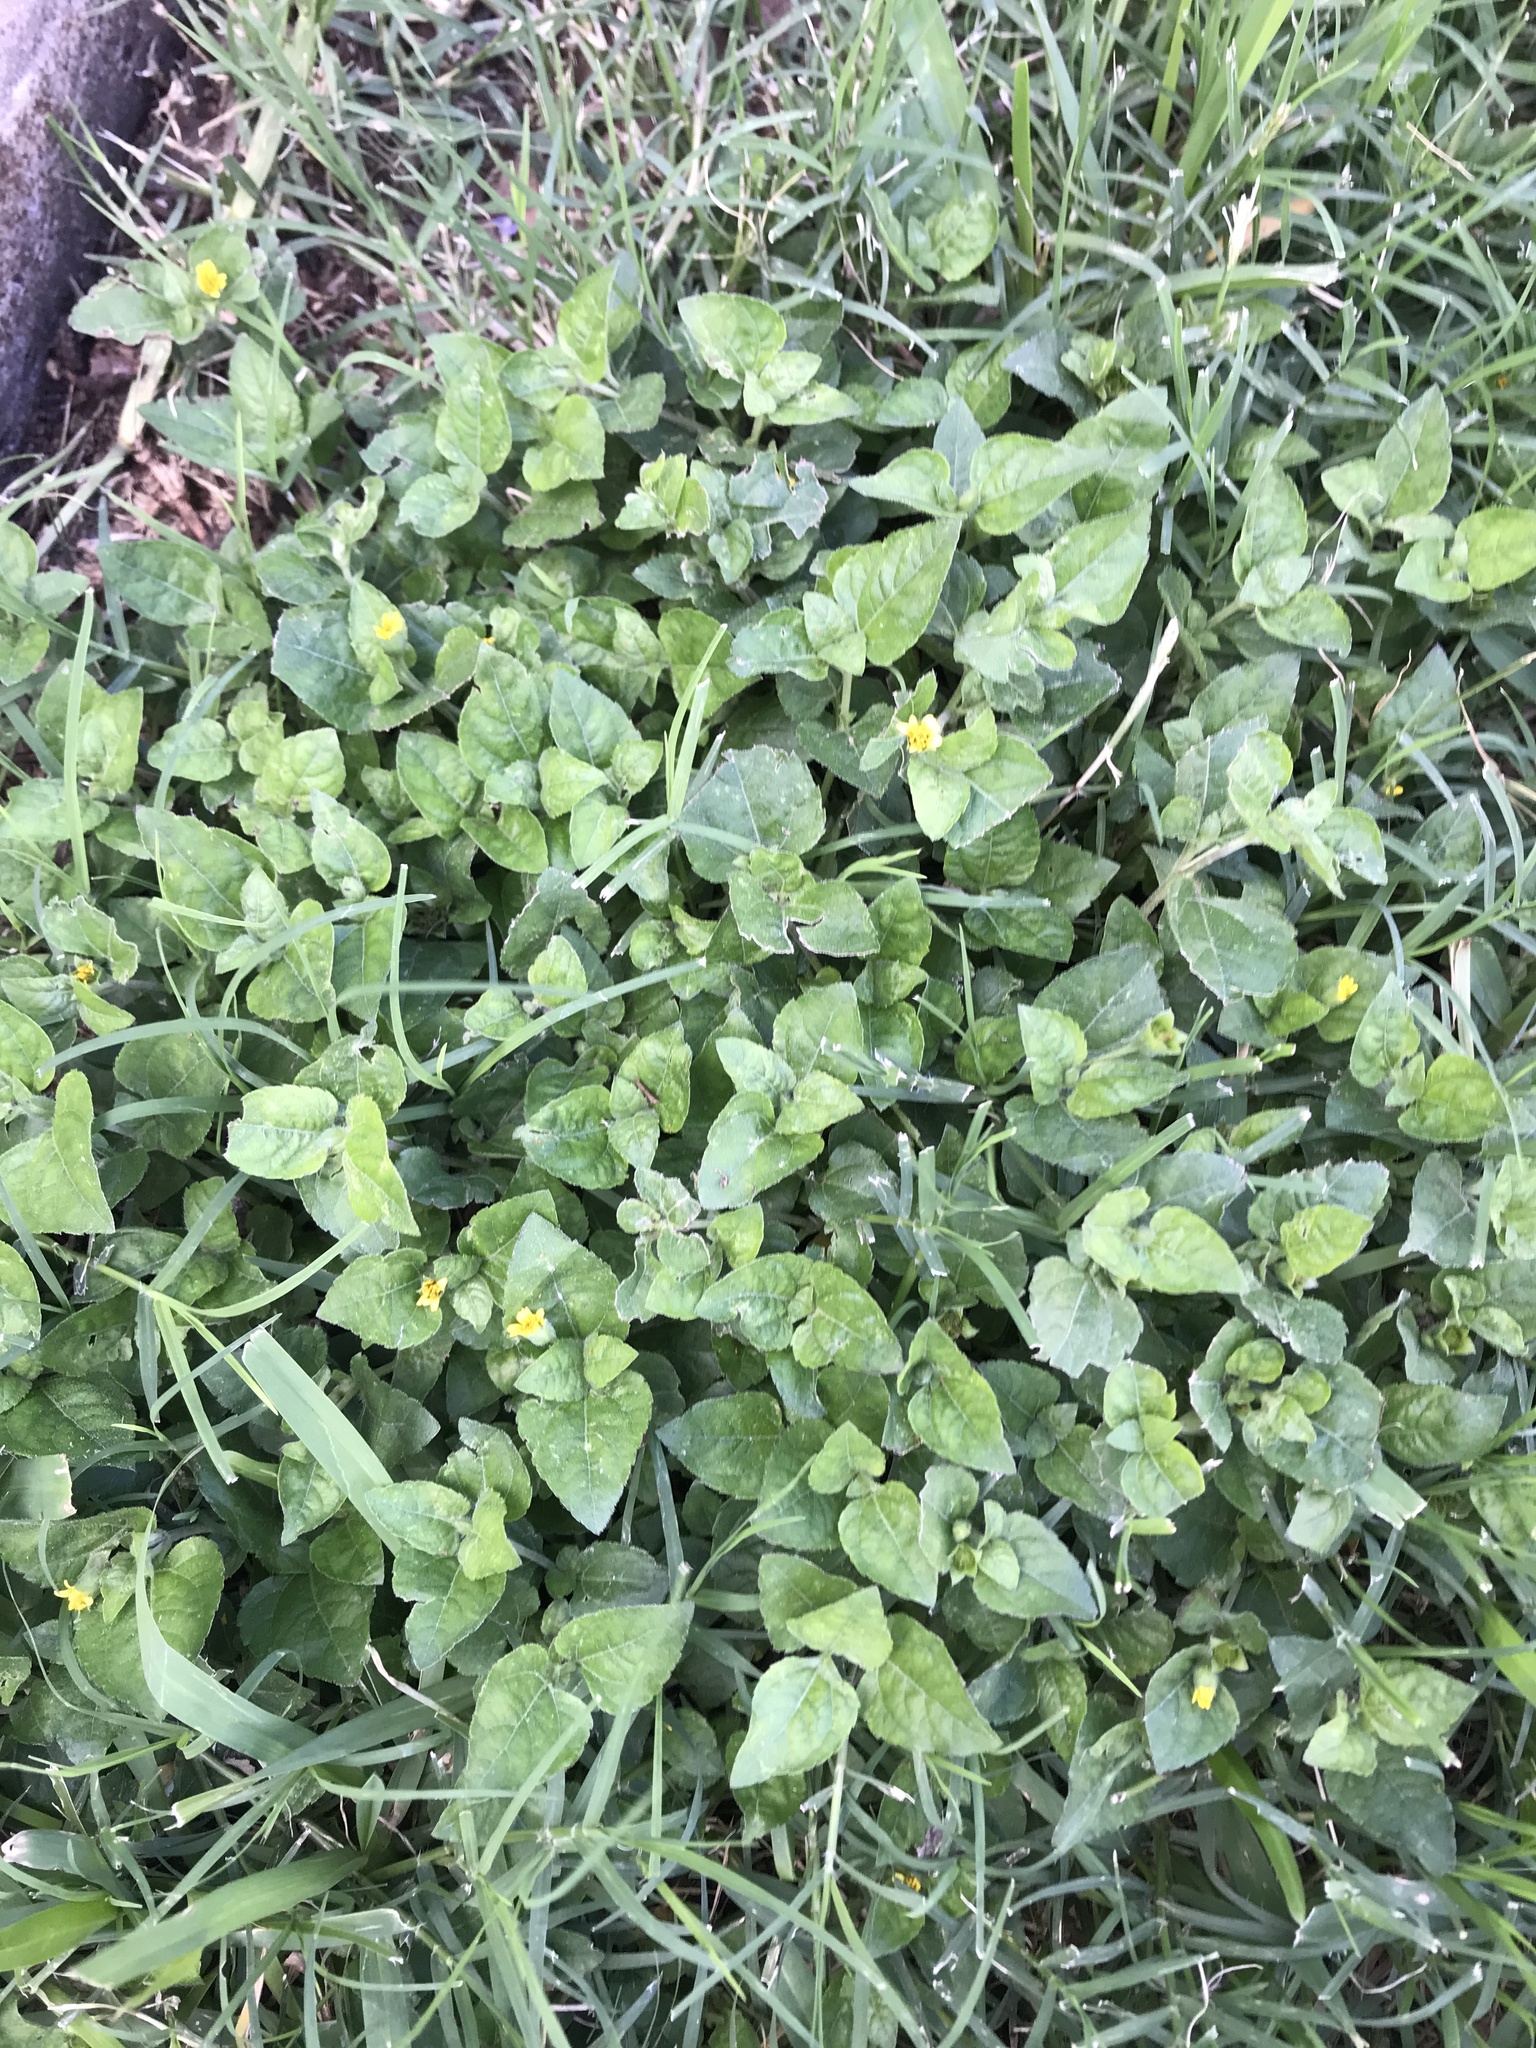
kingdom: Plantae
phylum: Tracheophyta
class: Magnoliopsida
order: Asterales
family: Asteraceae
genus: Calyptocarpus
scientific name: Calyptocarpus vialis
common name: Straggler daisy
